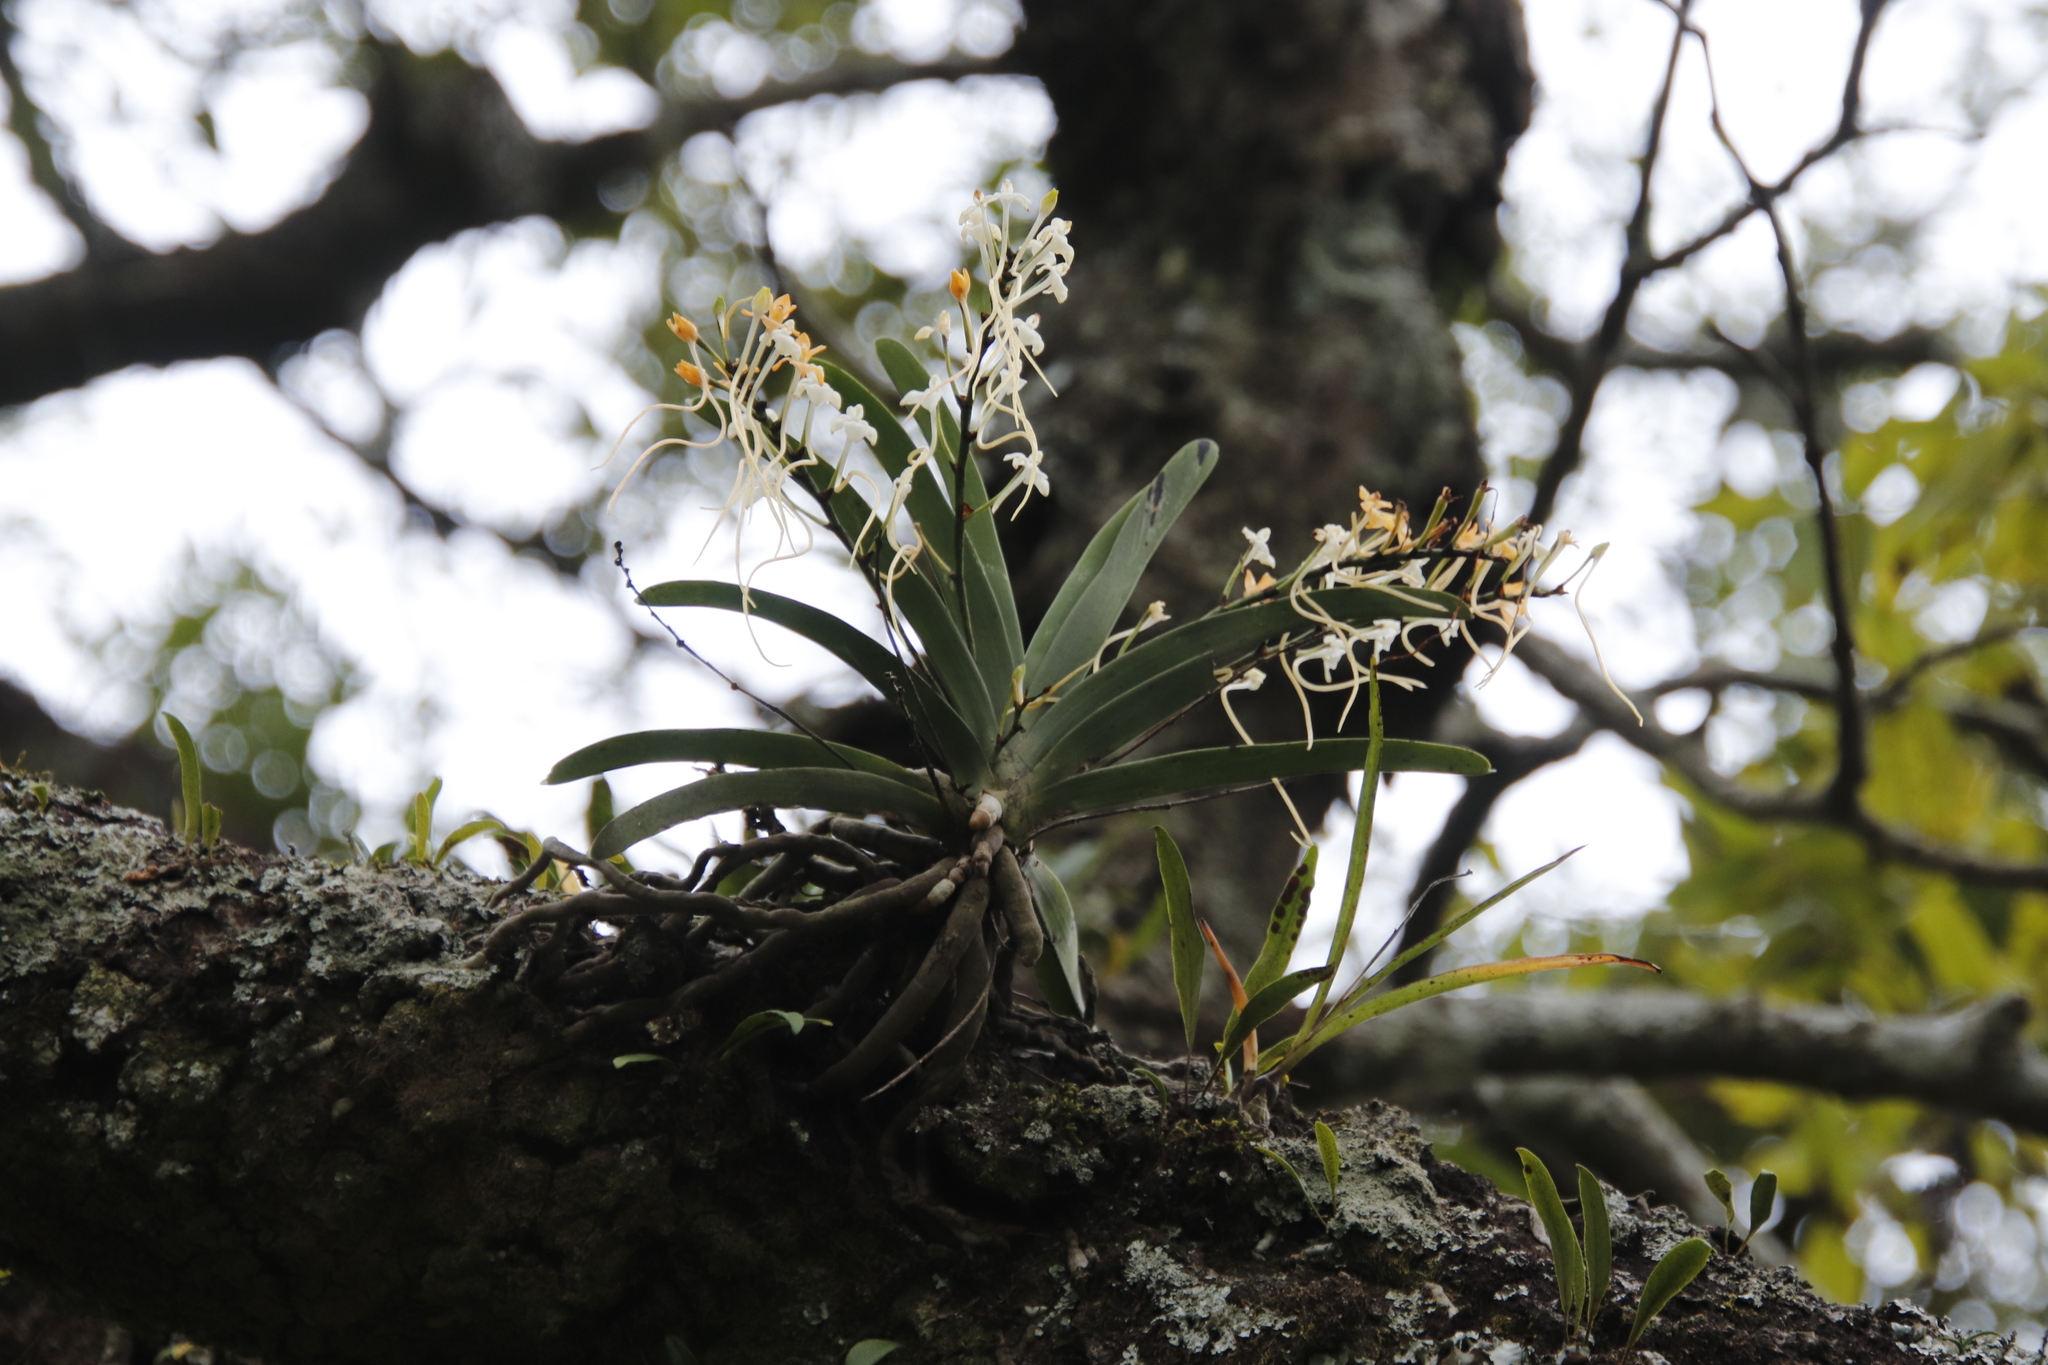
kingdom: Plantae
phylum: Tracheophyta
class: Liliopsida
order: Asparagales
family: Orchidaceae
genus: Rangaeris
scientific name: Rangaeris muscicola
